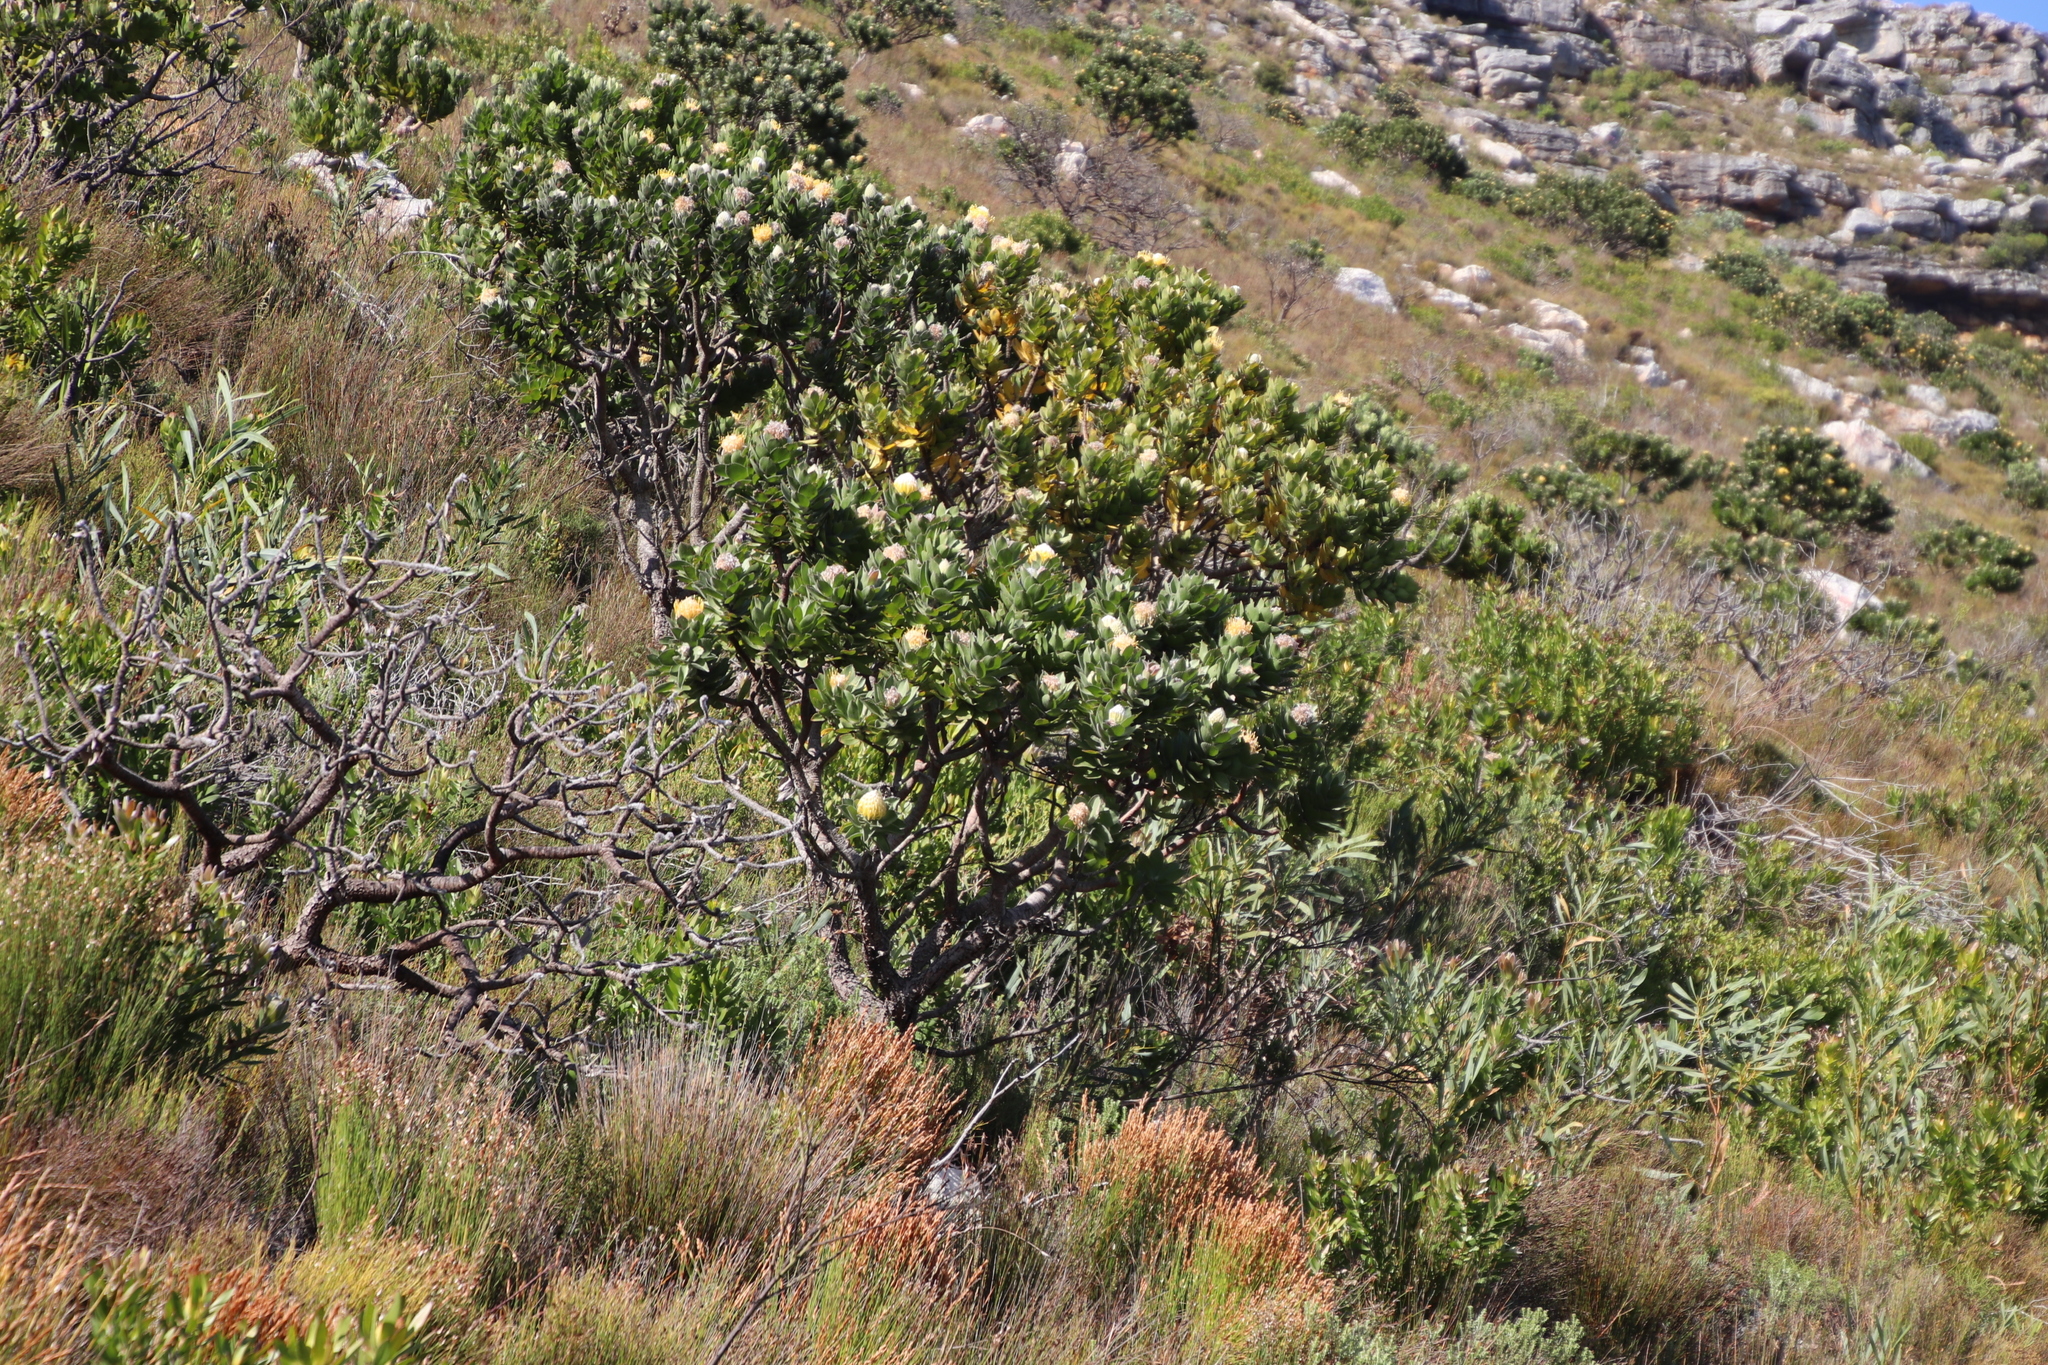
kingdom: Plantae
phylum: Tracheophyta
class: Magnoliopsida
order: Proteales
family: Proteaceae
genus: Leucospermum
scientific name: Leucospermum conocarpodendron
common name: Tree pincushion
